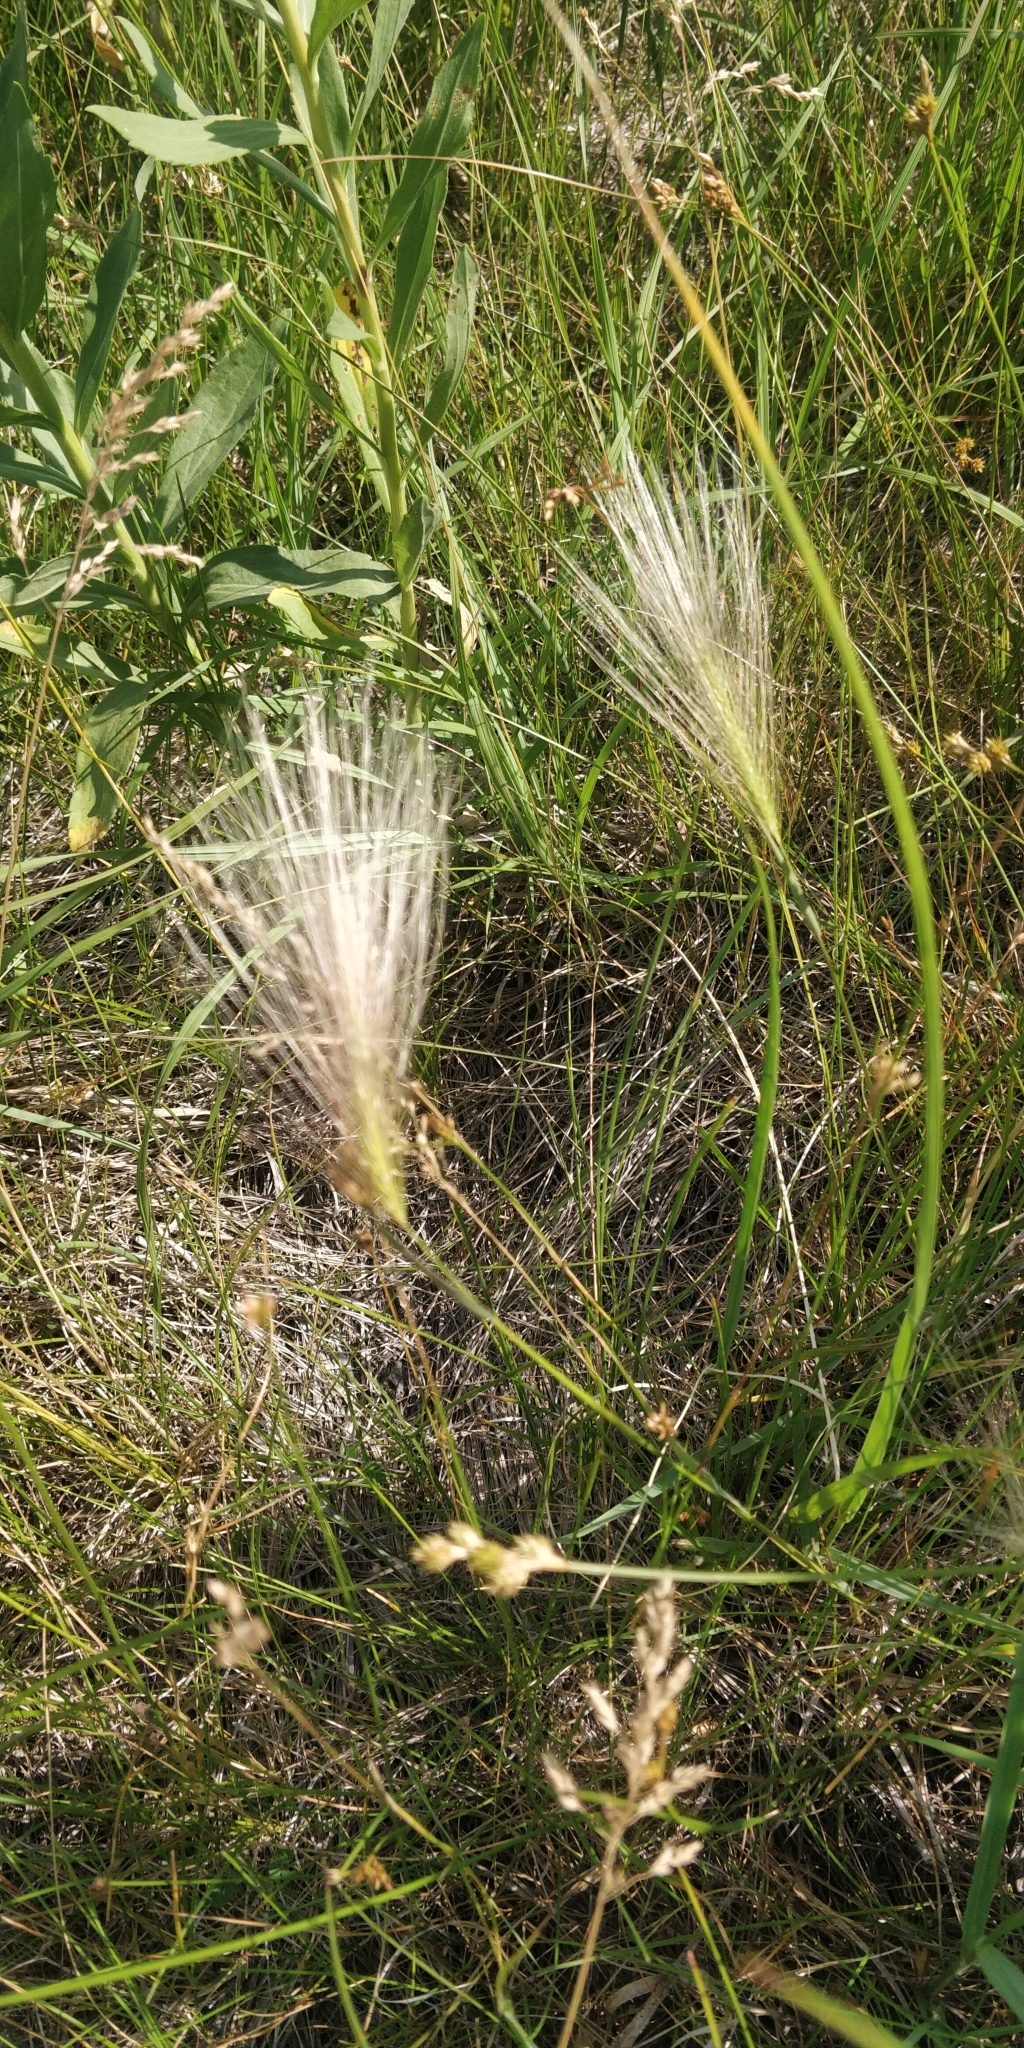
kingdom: Plantae
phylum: Tracheophyta
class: Liliopsida
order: Poales
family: Poaceae
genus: Hordeum
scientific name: Hordeum jubatum
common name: Foxtail barley
